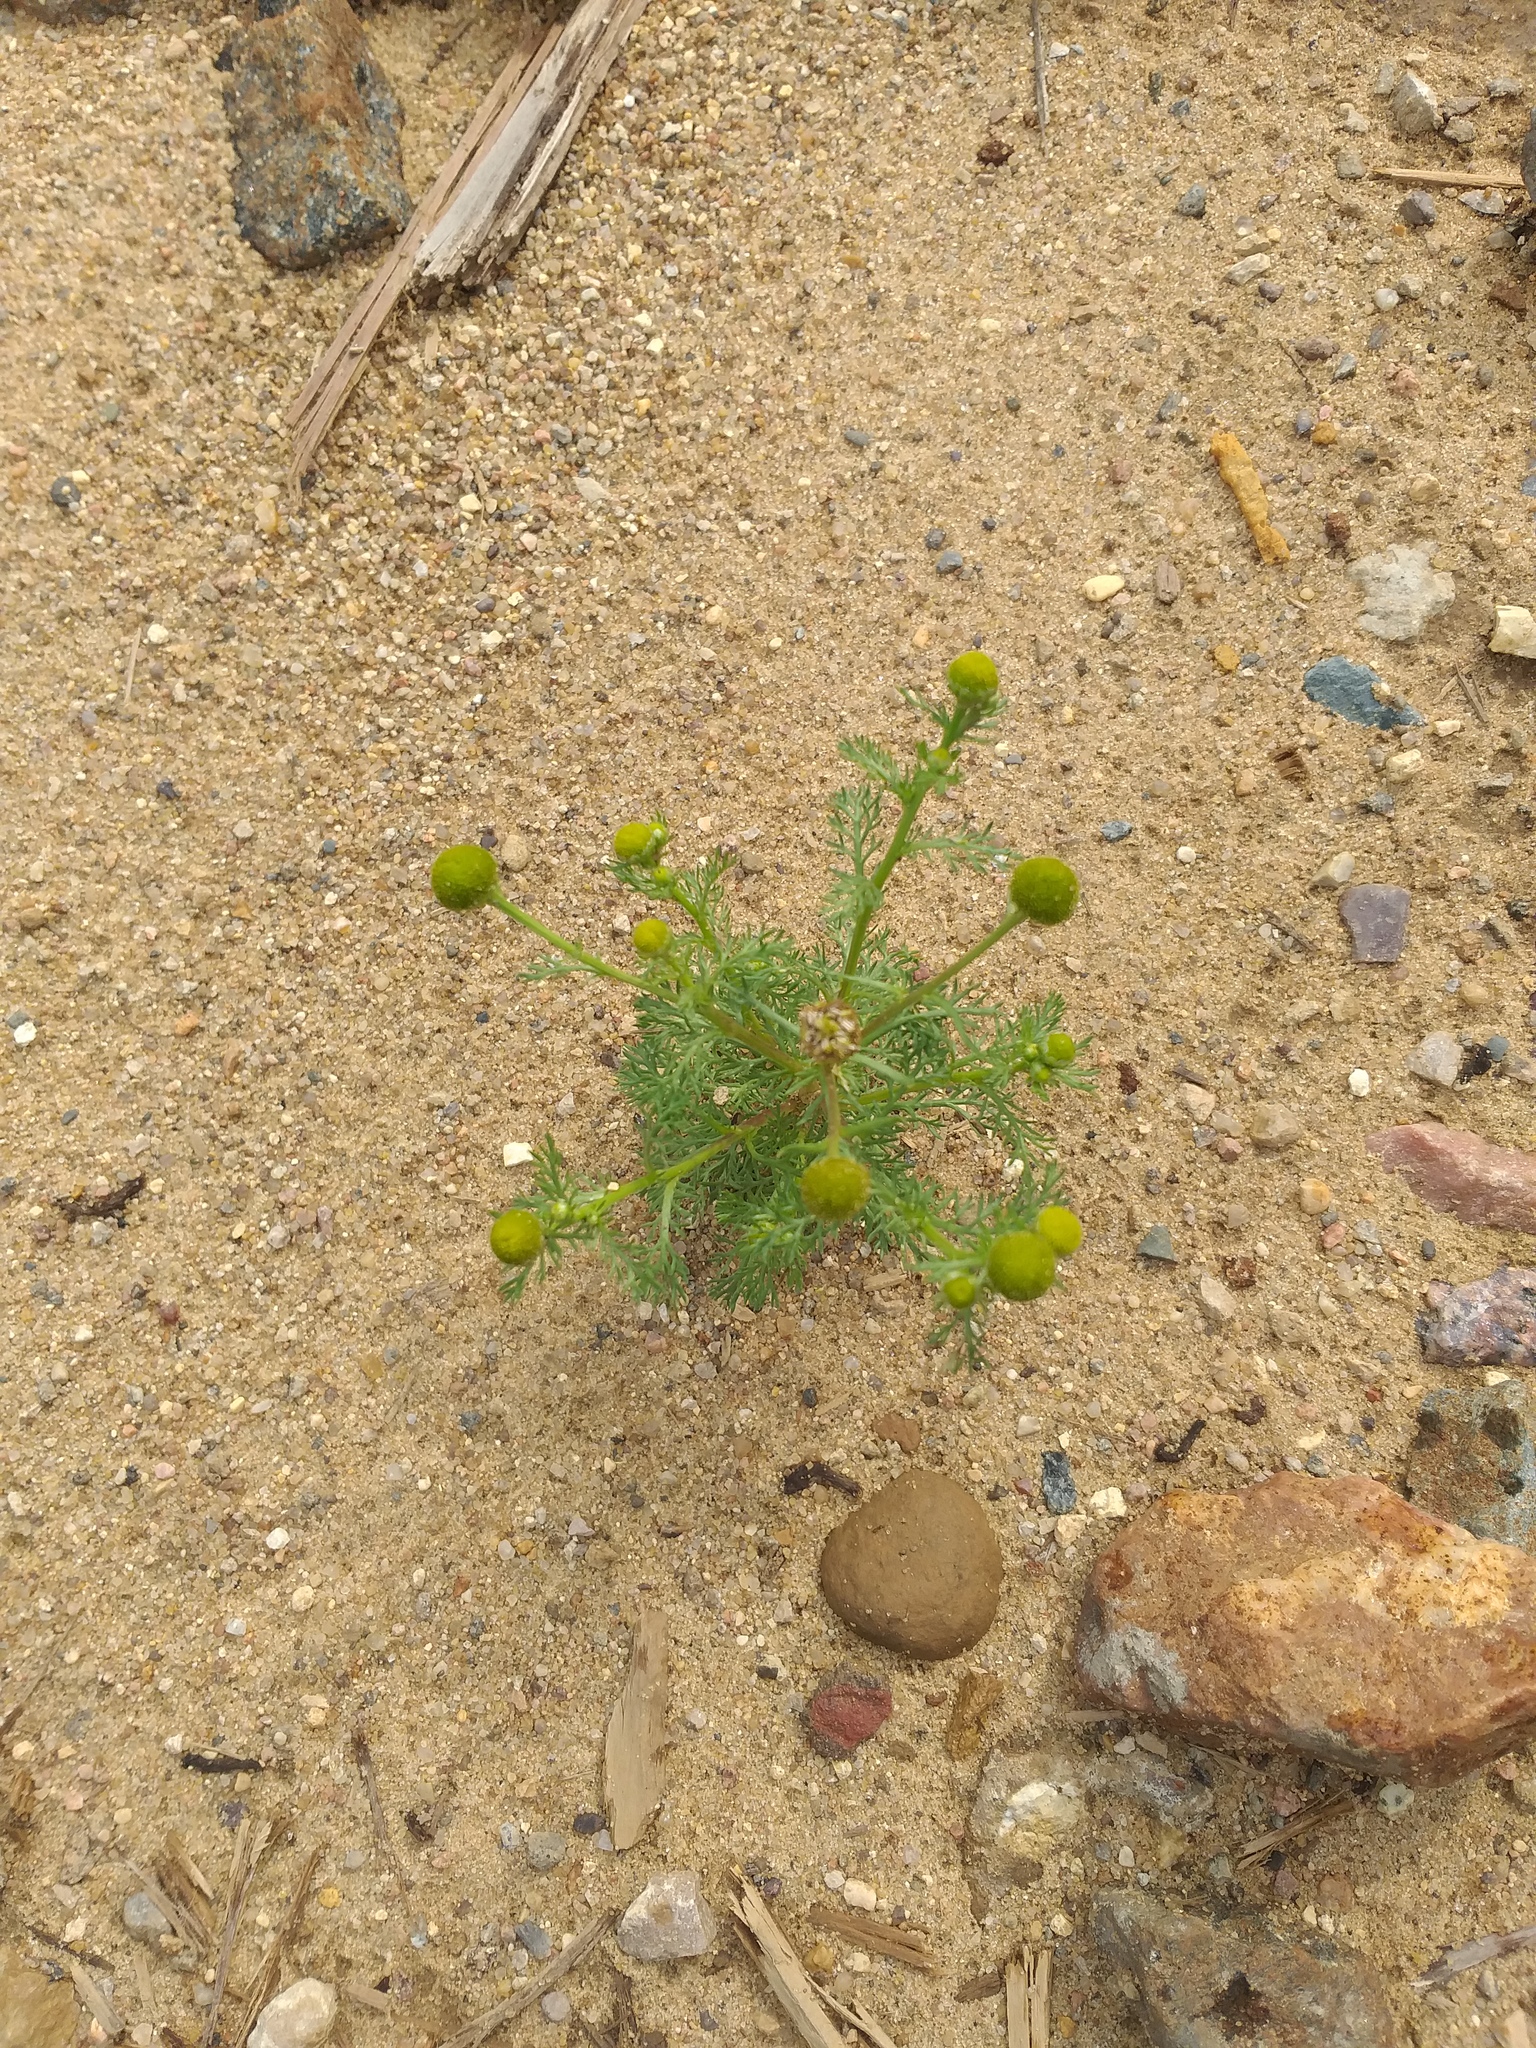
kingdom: Plantae
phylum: Tracheophyta
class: Magnoliopsida
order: Asterales
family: Asteraceae
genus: Matricaria
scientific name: Matricaria discoidea
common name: Disc mayweed
